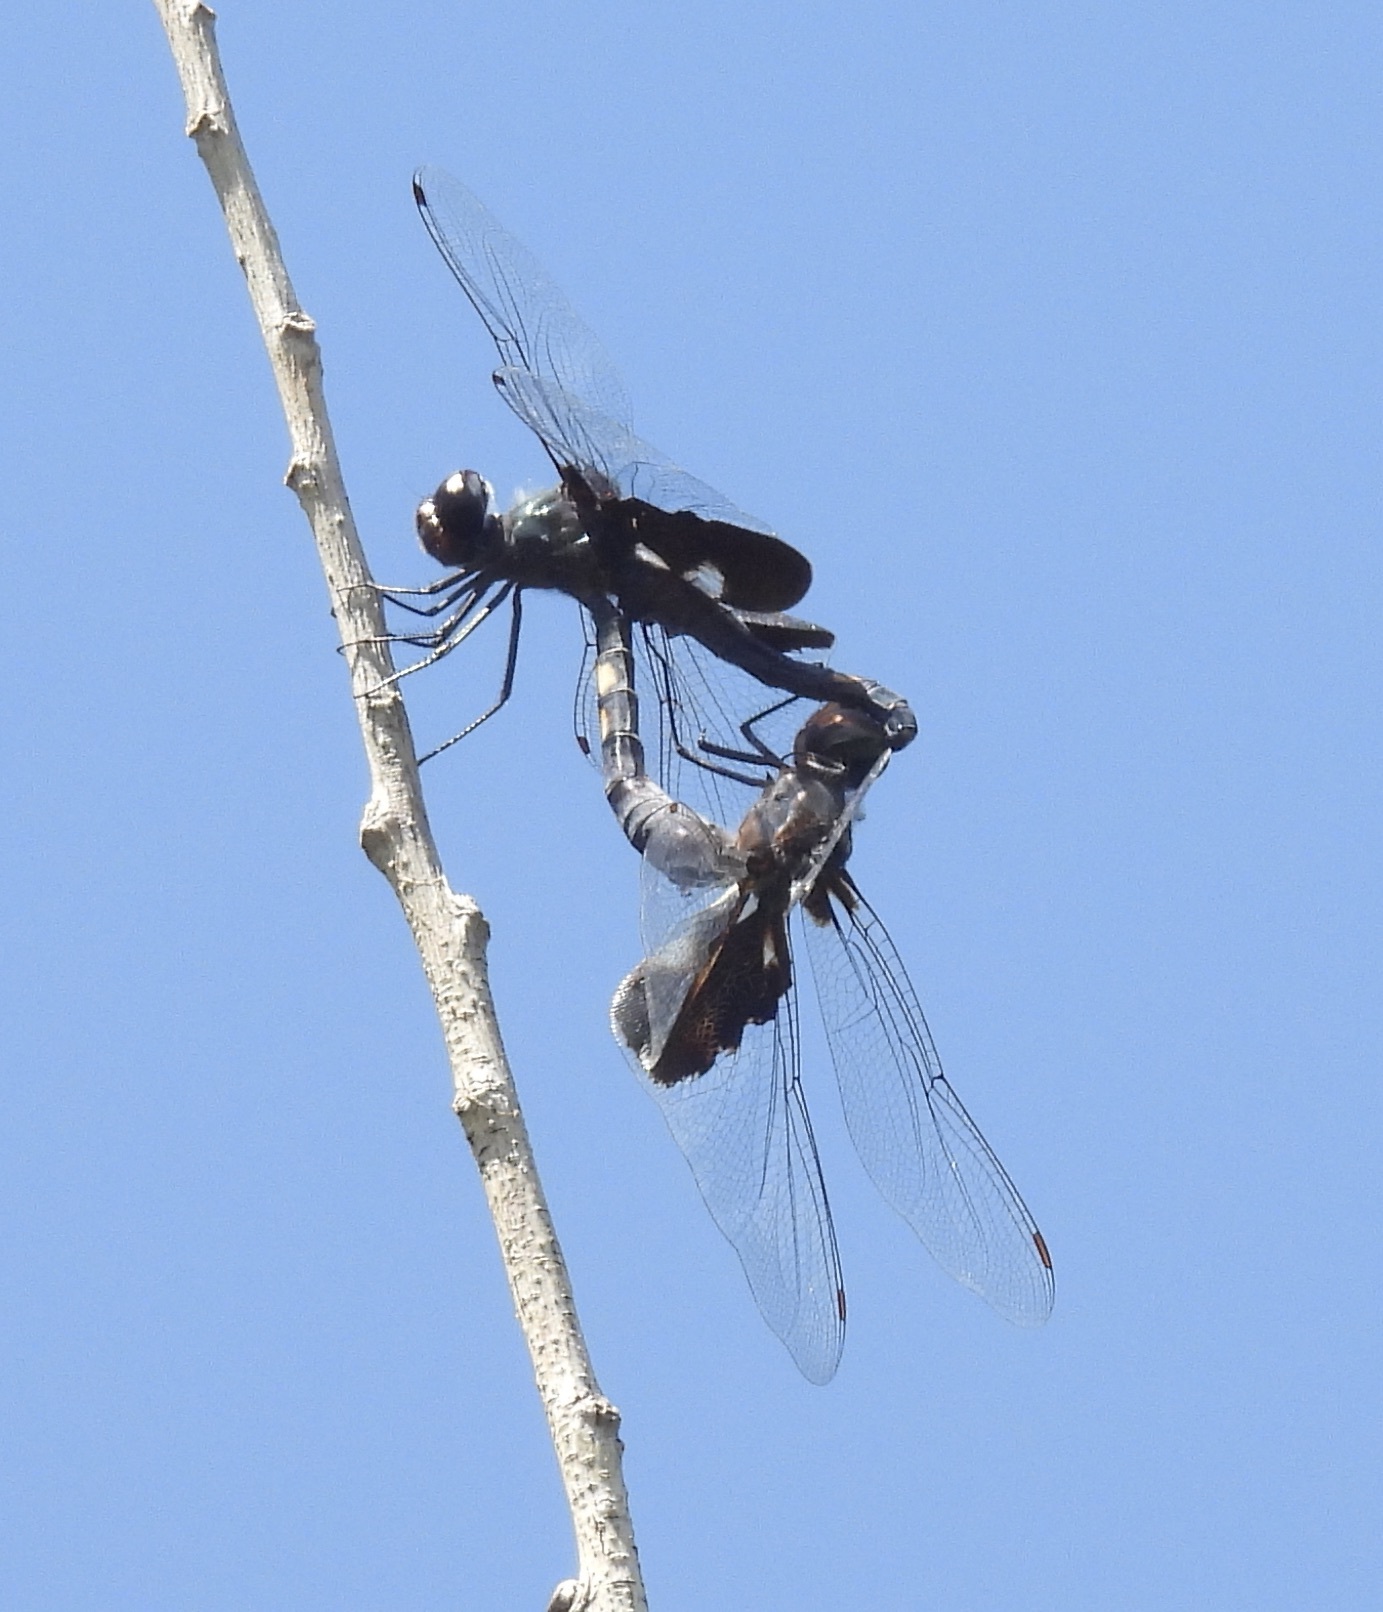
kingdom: Animalia
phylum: Arthropoda
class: Insecta
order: Odonata
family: Libellulidae
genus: Tramea
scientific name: Tramea lacerata
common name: Black saddlebags
